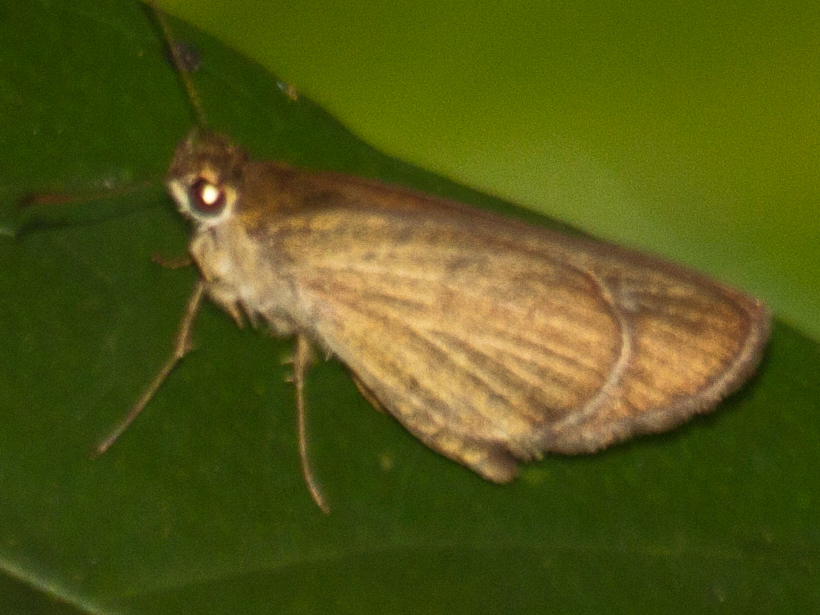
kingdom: Animalia
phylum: Arthropoda
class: Insecta
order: Lepidoptera
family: Hesperiidae
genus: Suada
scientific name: Suada swerga
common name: Grass bob
